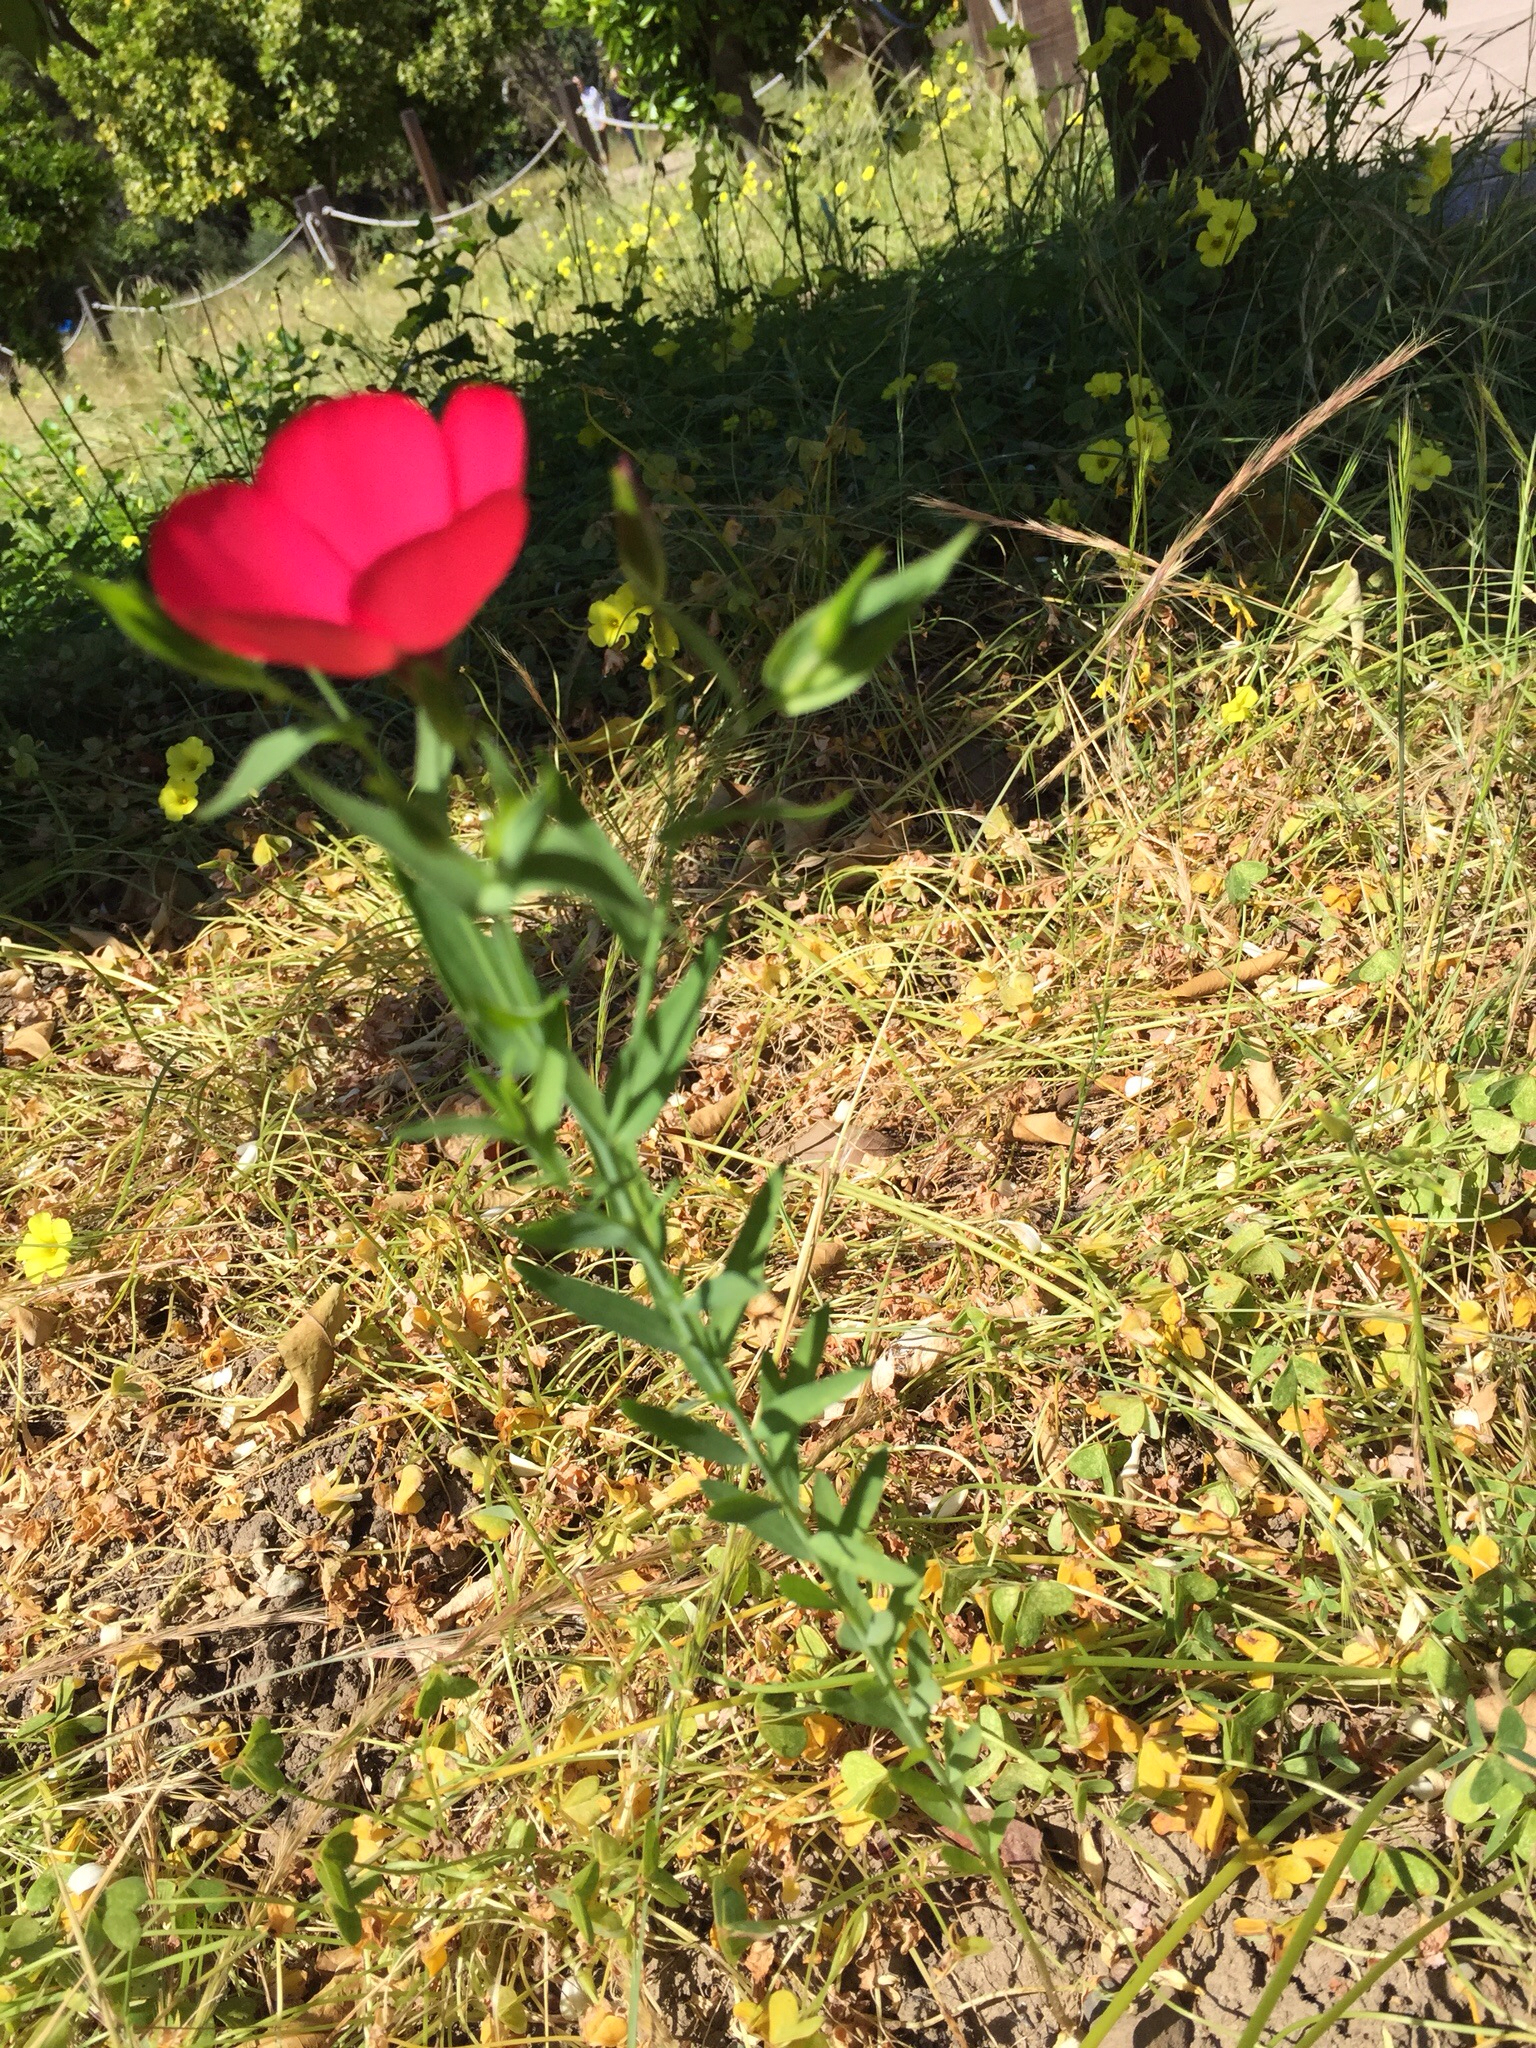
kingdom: Plantae
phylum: Tracheophyta
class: Magnoliopsida
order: Malpighiales
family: Linaceae
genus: Linum
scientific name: Linum grandiflorum
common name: Crimson flax
